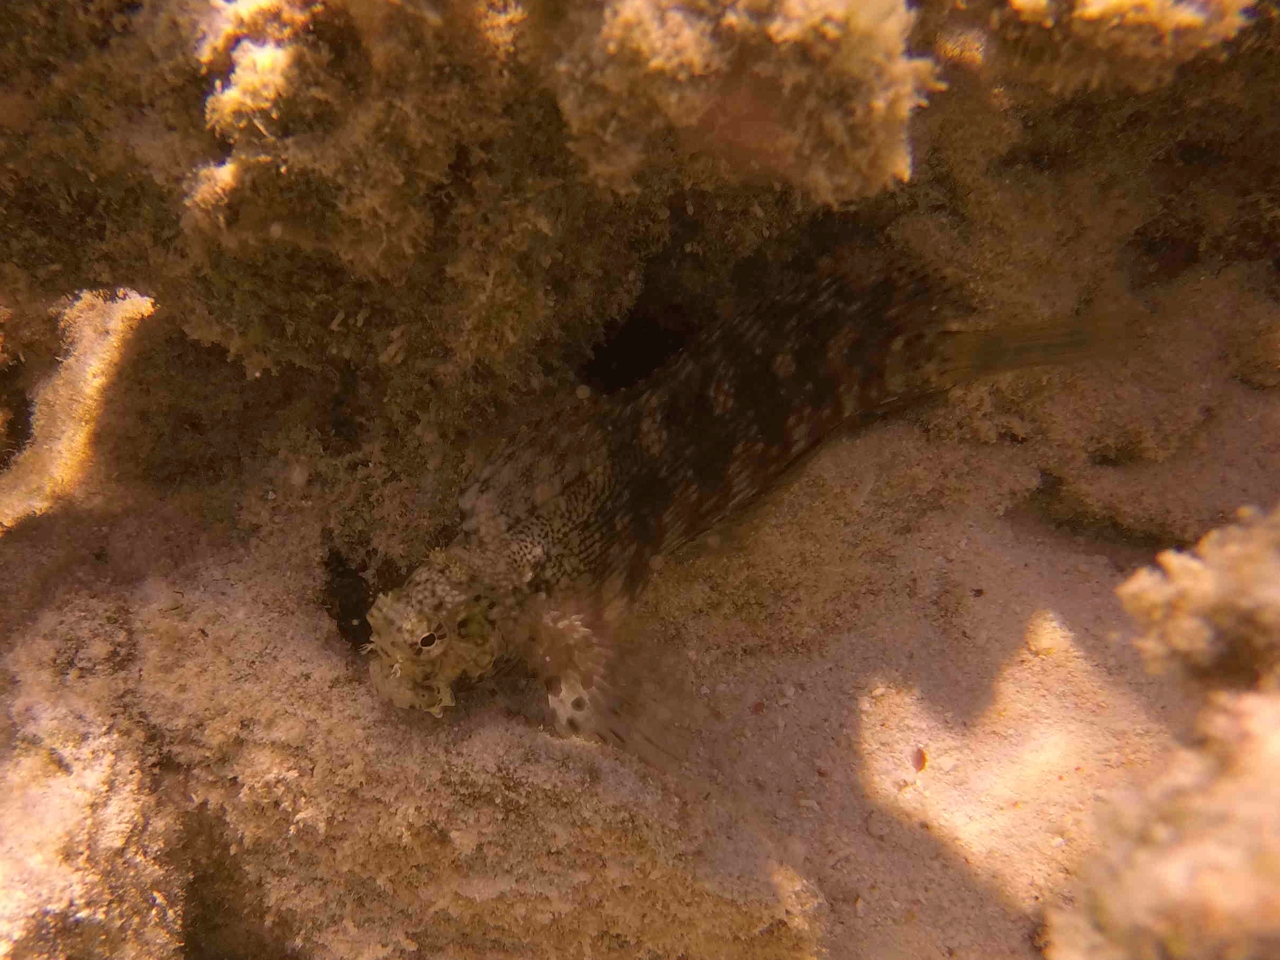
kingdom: Animalia
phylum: Chordata
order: Perciformes
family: Blenniidae
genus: Salarias
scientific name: Salarias fasciatus
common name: Jewelled blenny
